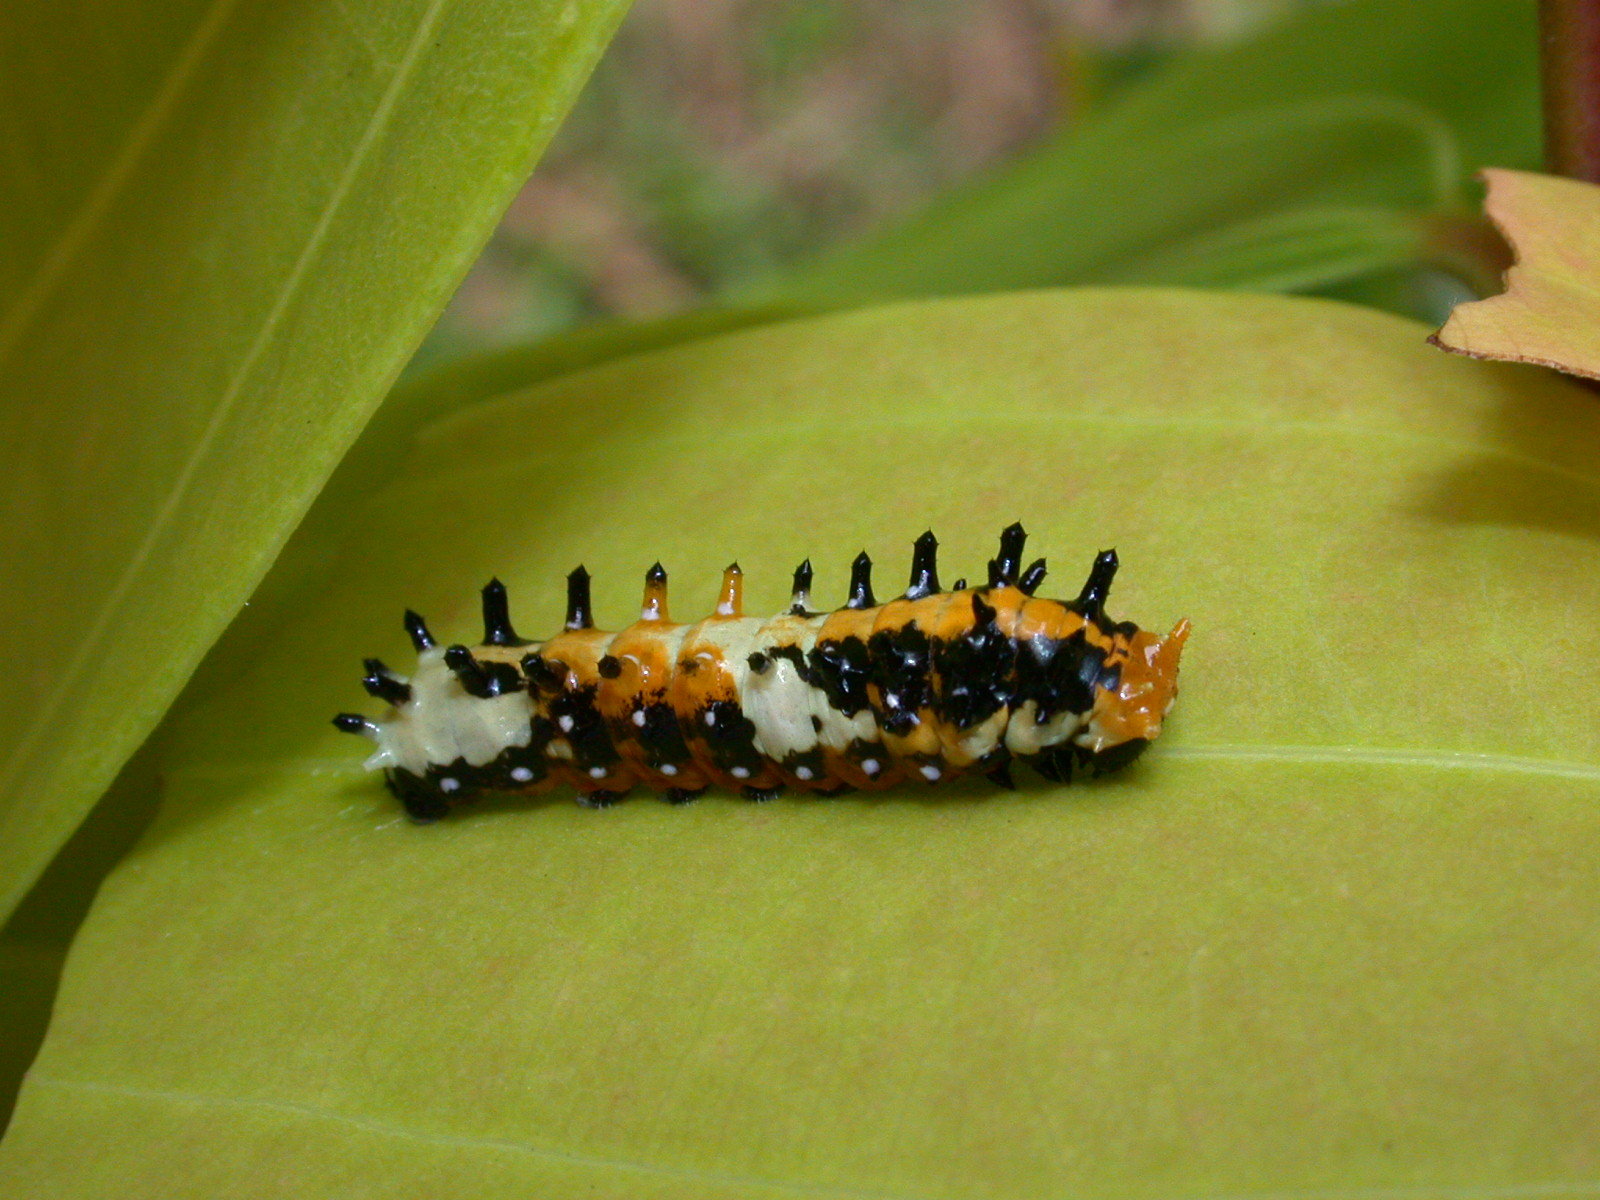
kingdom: Animalia
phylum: Arthropoda
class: Insecta
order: Lepidoptera
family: Papilionidae
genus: Chilasa
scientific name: Chilasa clytia
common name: Common mime
